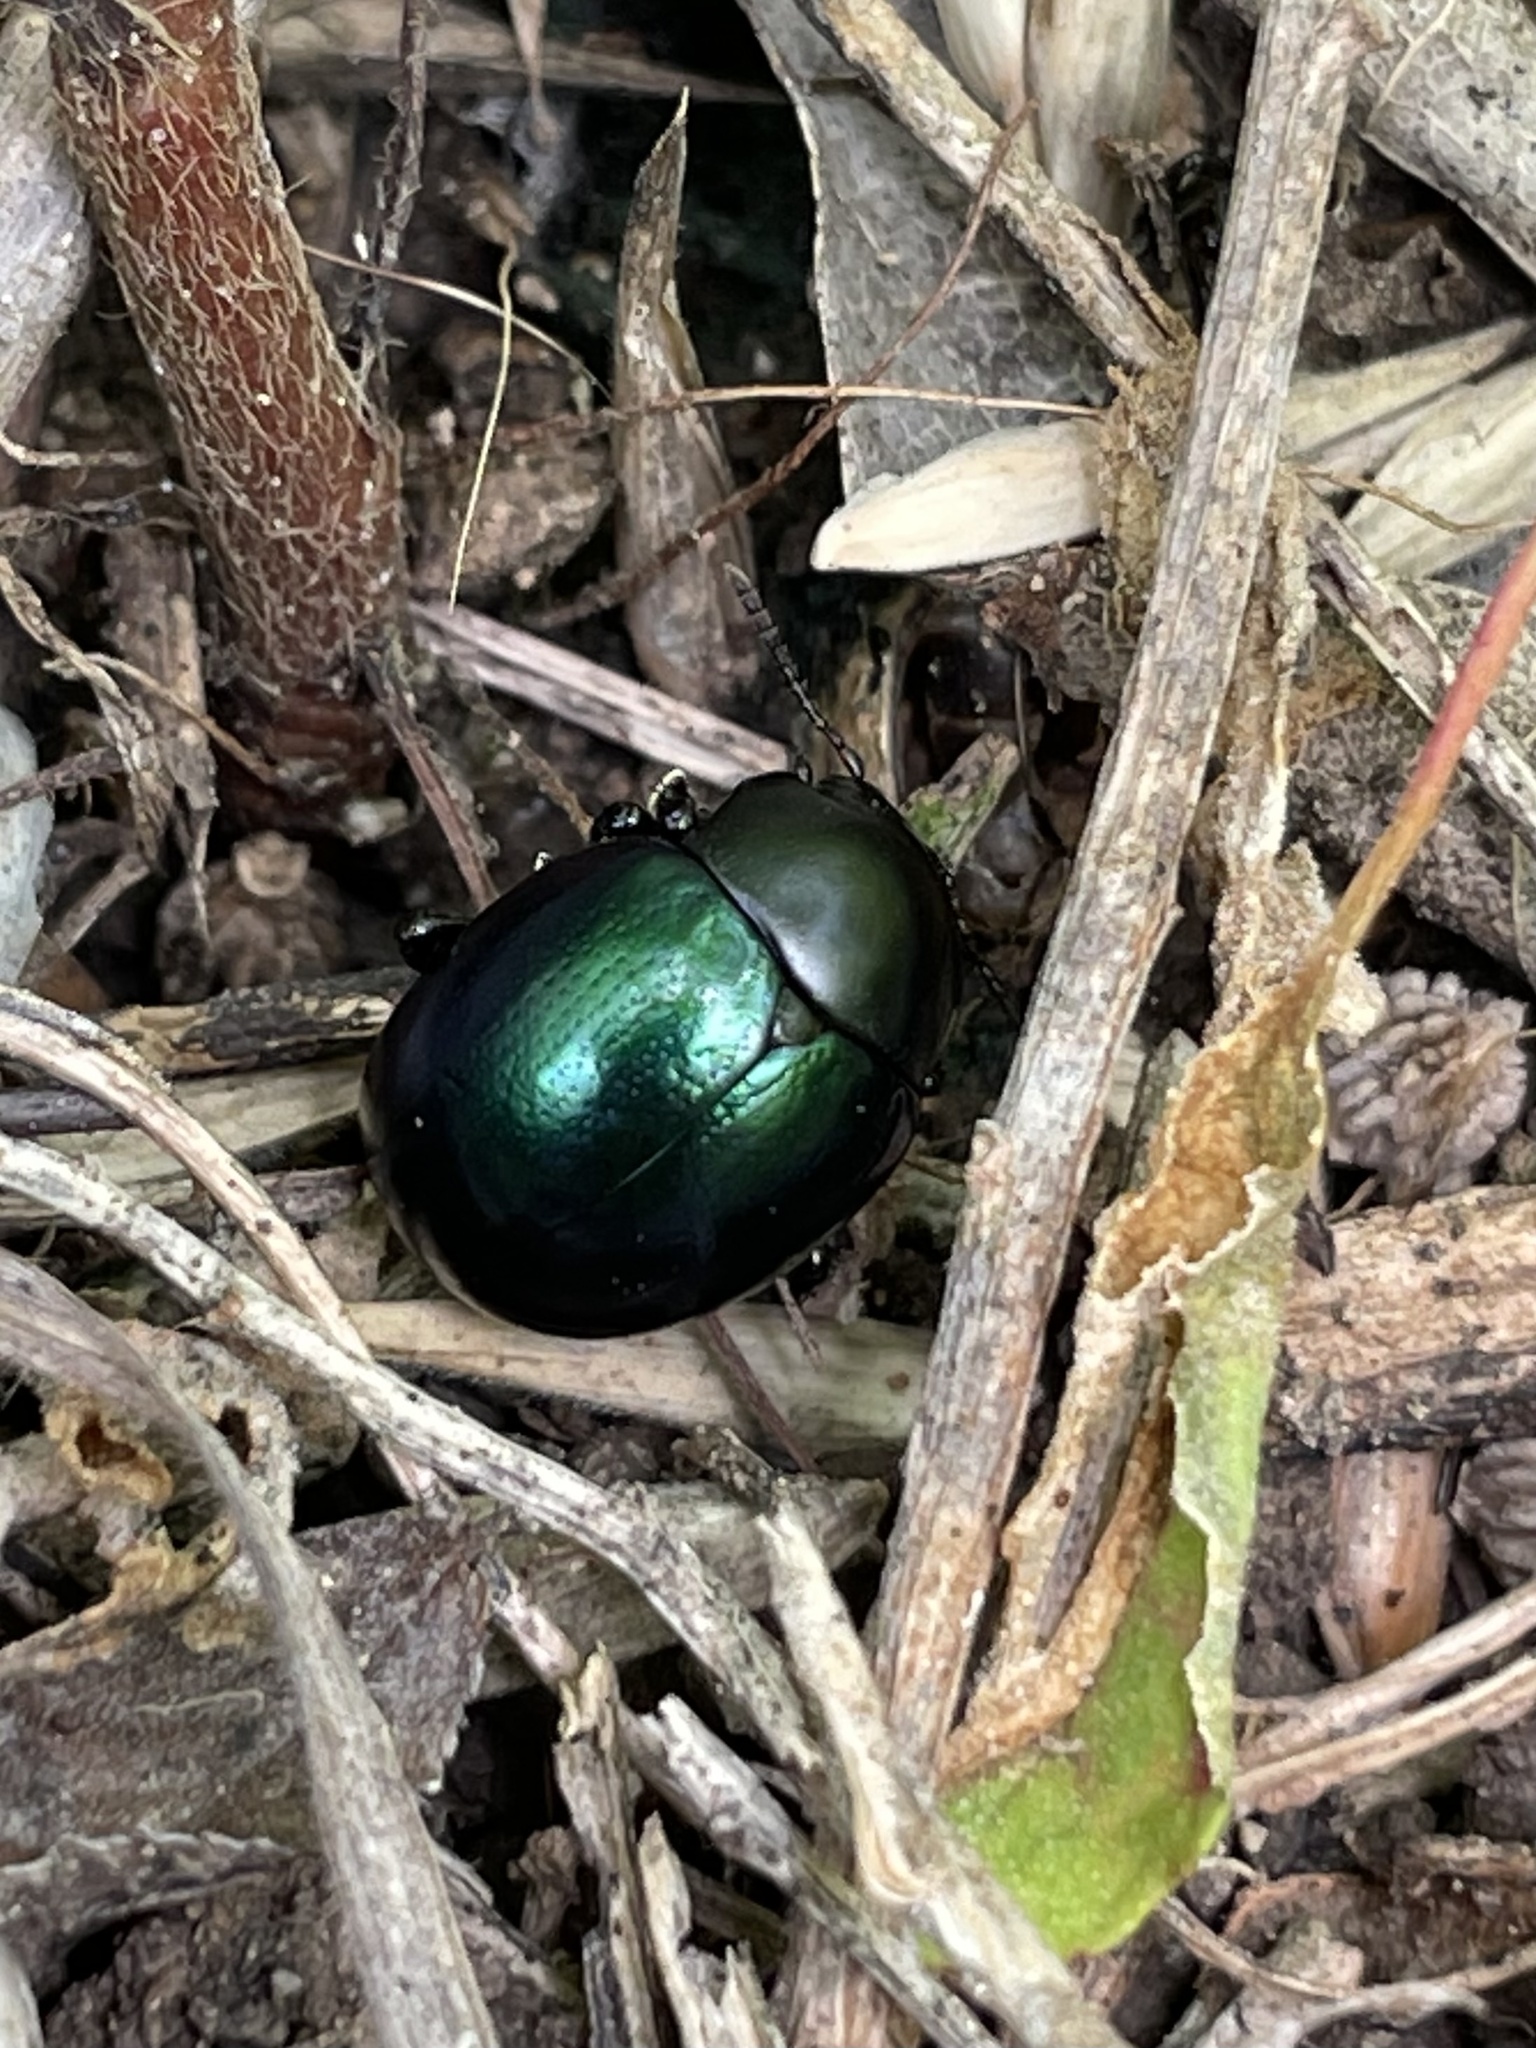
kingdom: Animalia
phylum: Arthropoda
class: Insecta
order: Coleoptera
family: Chrysomelidae
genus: Leptinotarsa
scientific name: Leptinotarsa haldemani
